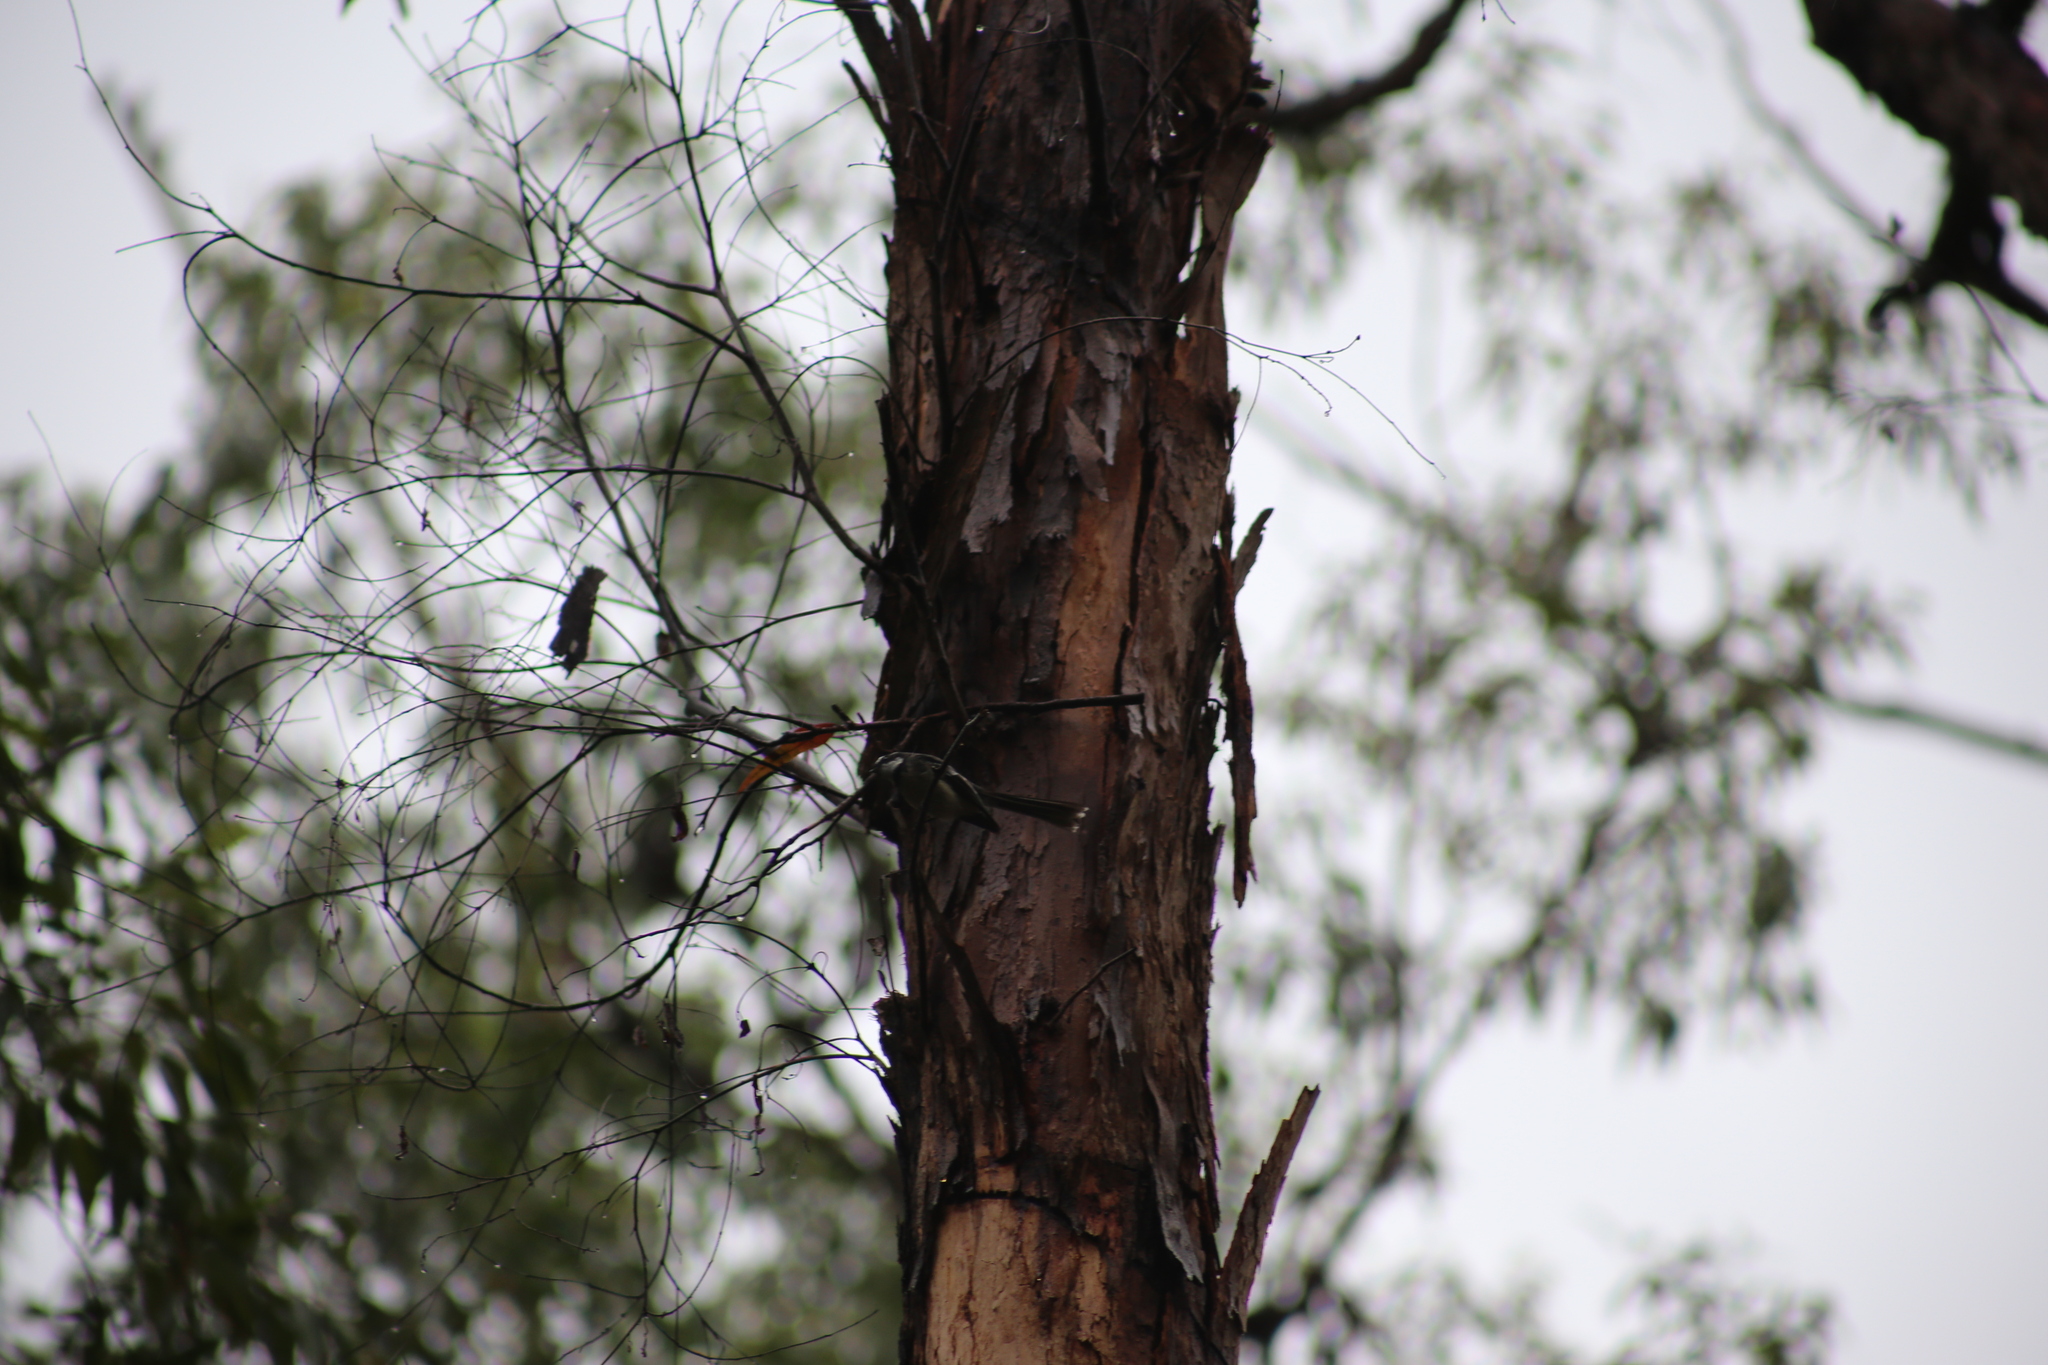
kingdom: Animalia
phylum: Chordata
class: Aves
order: Passeriformes
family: Rhipiduridae
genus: Rhipidura
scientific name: Rhipidura albiscapa
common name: Grey fantail
